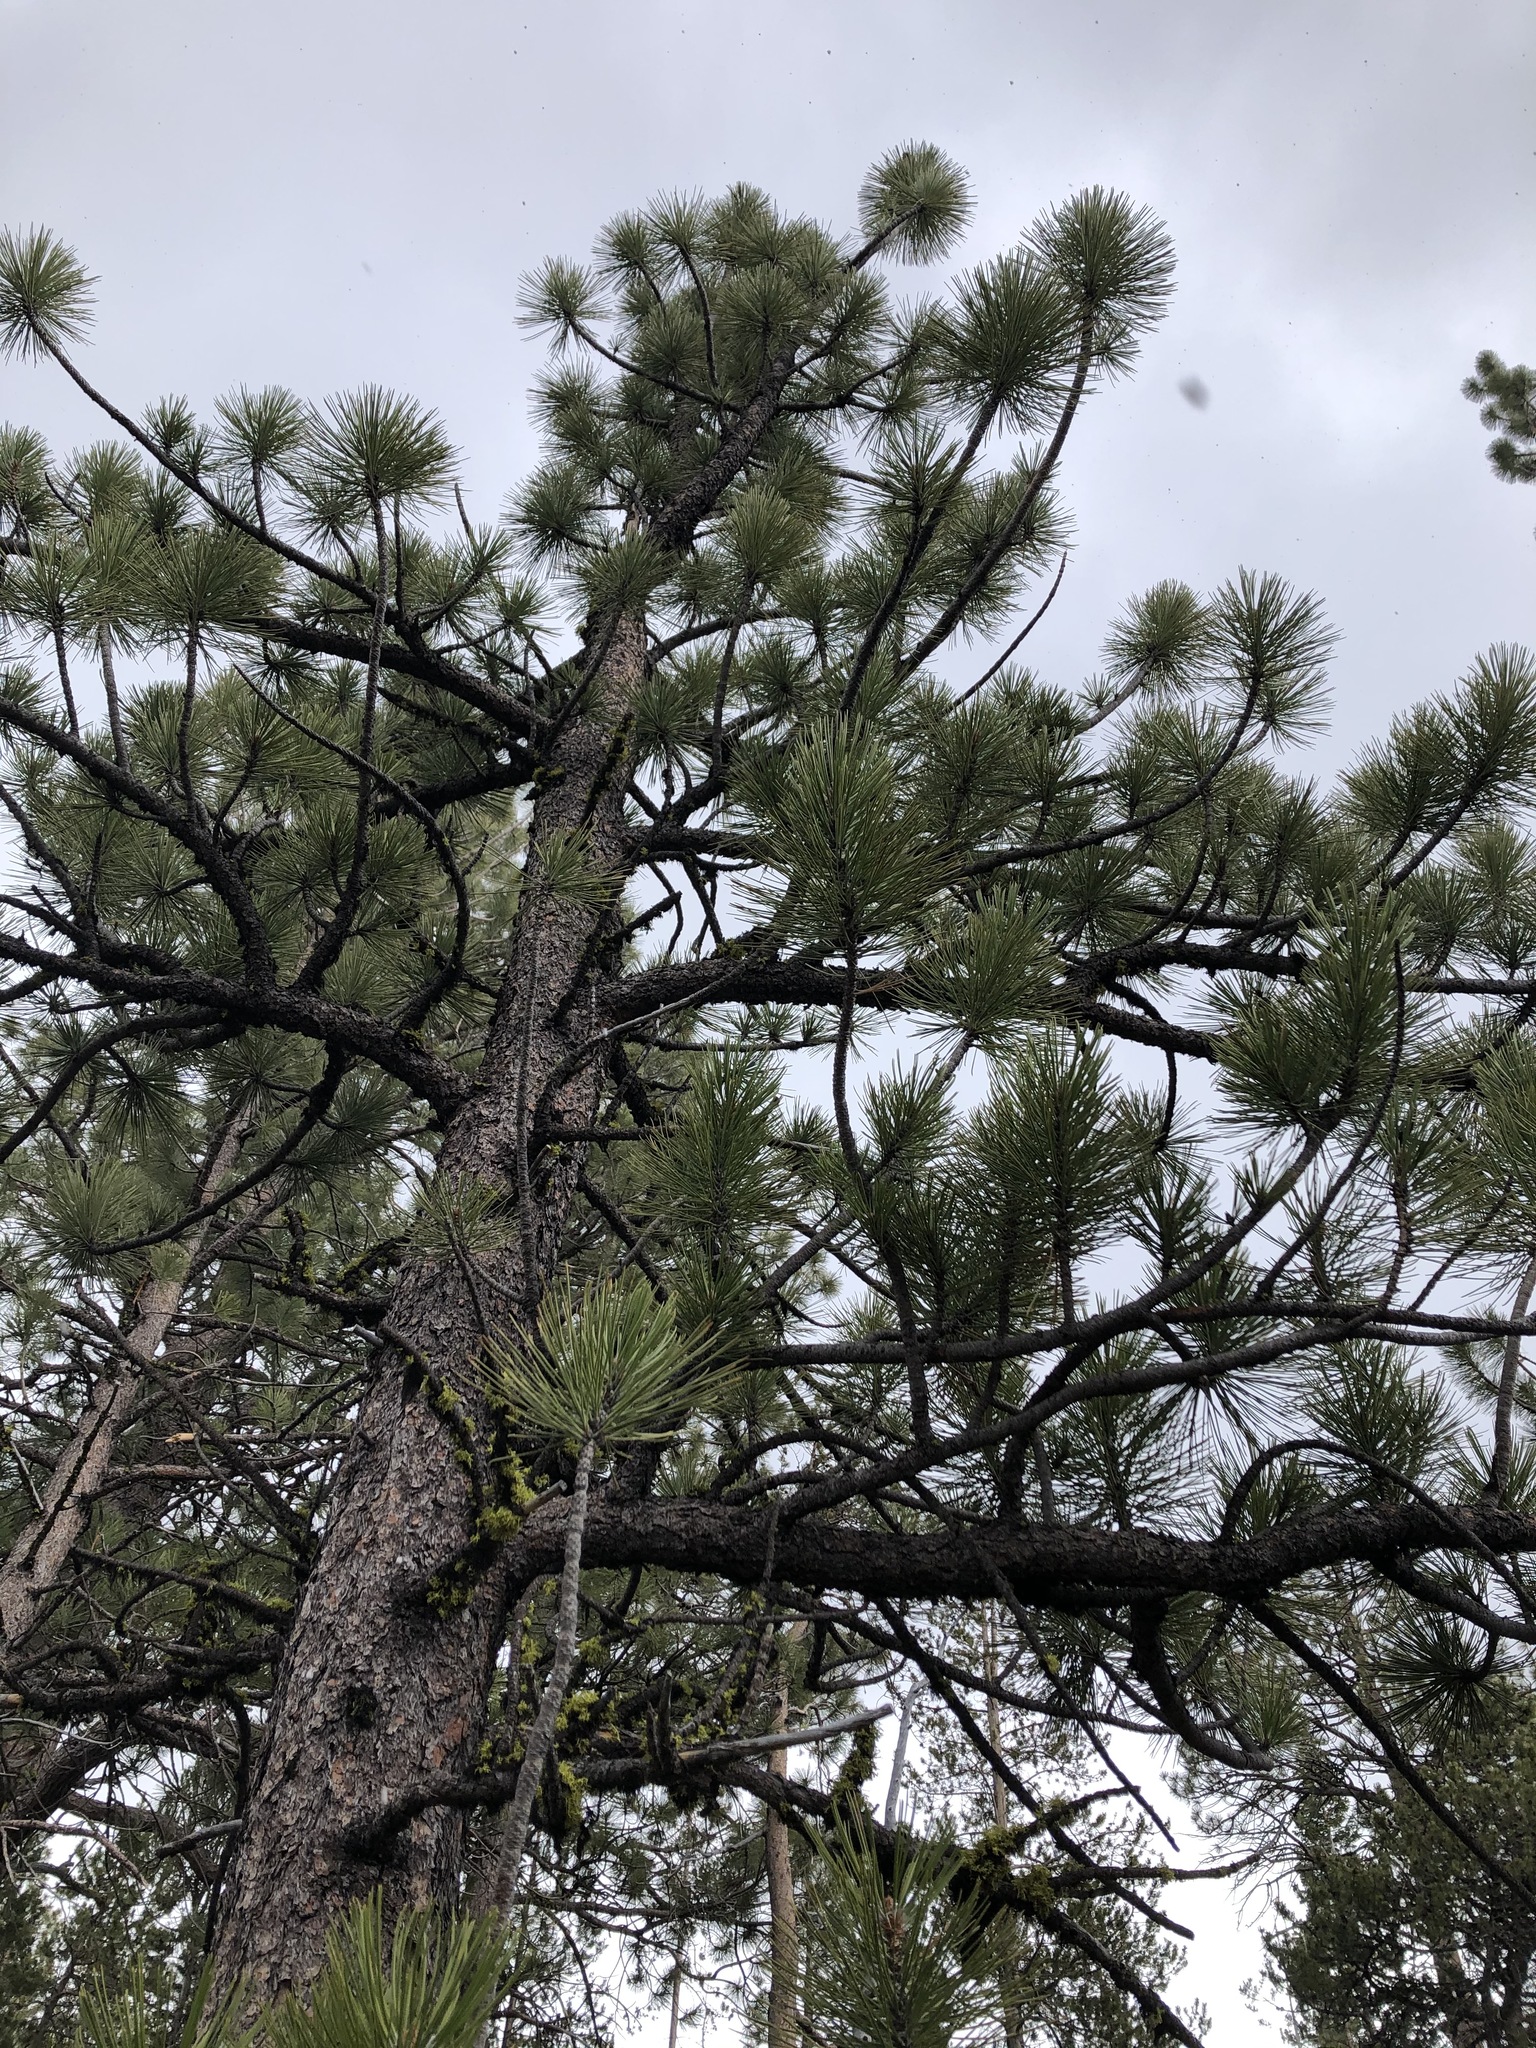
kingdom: Plantae
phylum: Tracheophyta
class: Pinopsida
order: Pinales
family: Pinaceae
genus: Pinus
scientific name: Pinus ponderosa
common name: Western yellow-pine
